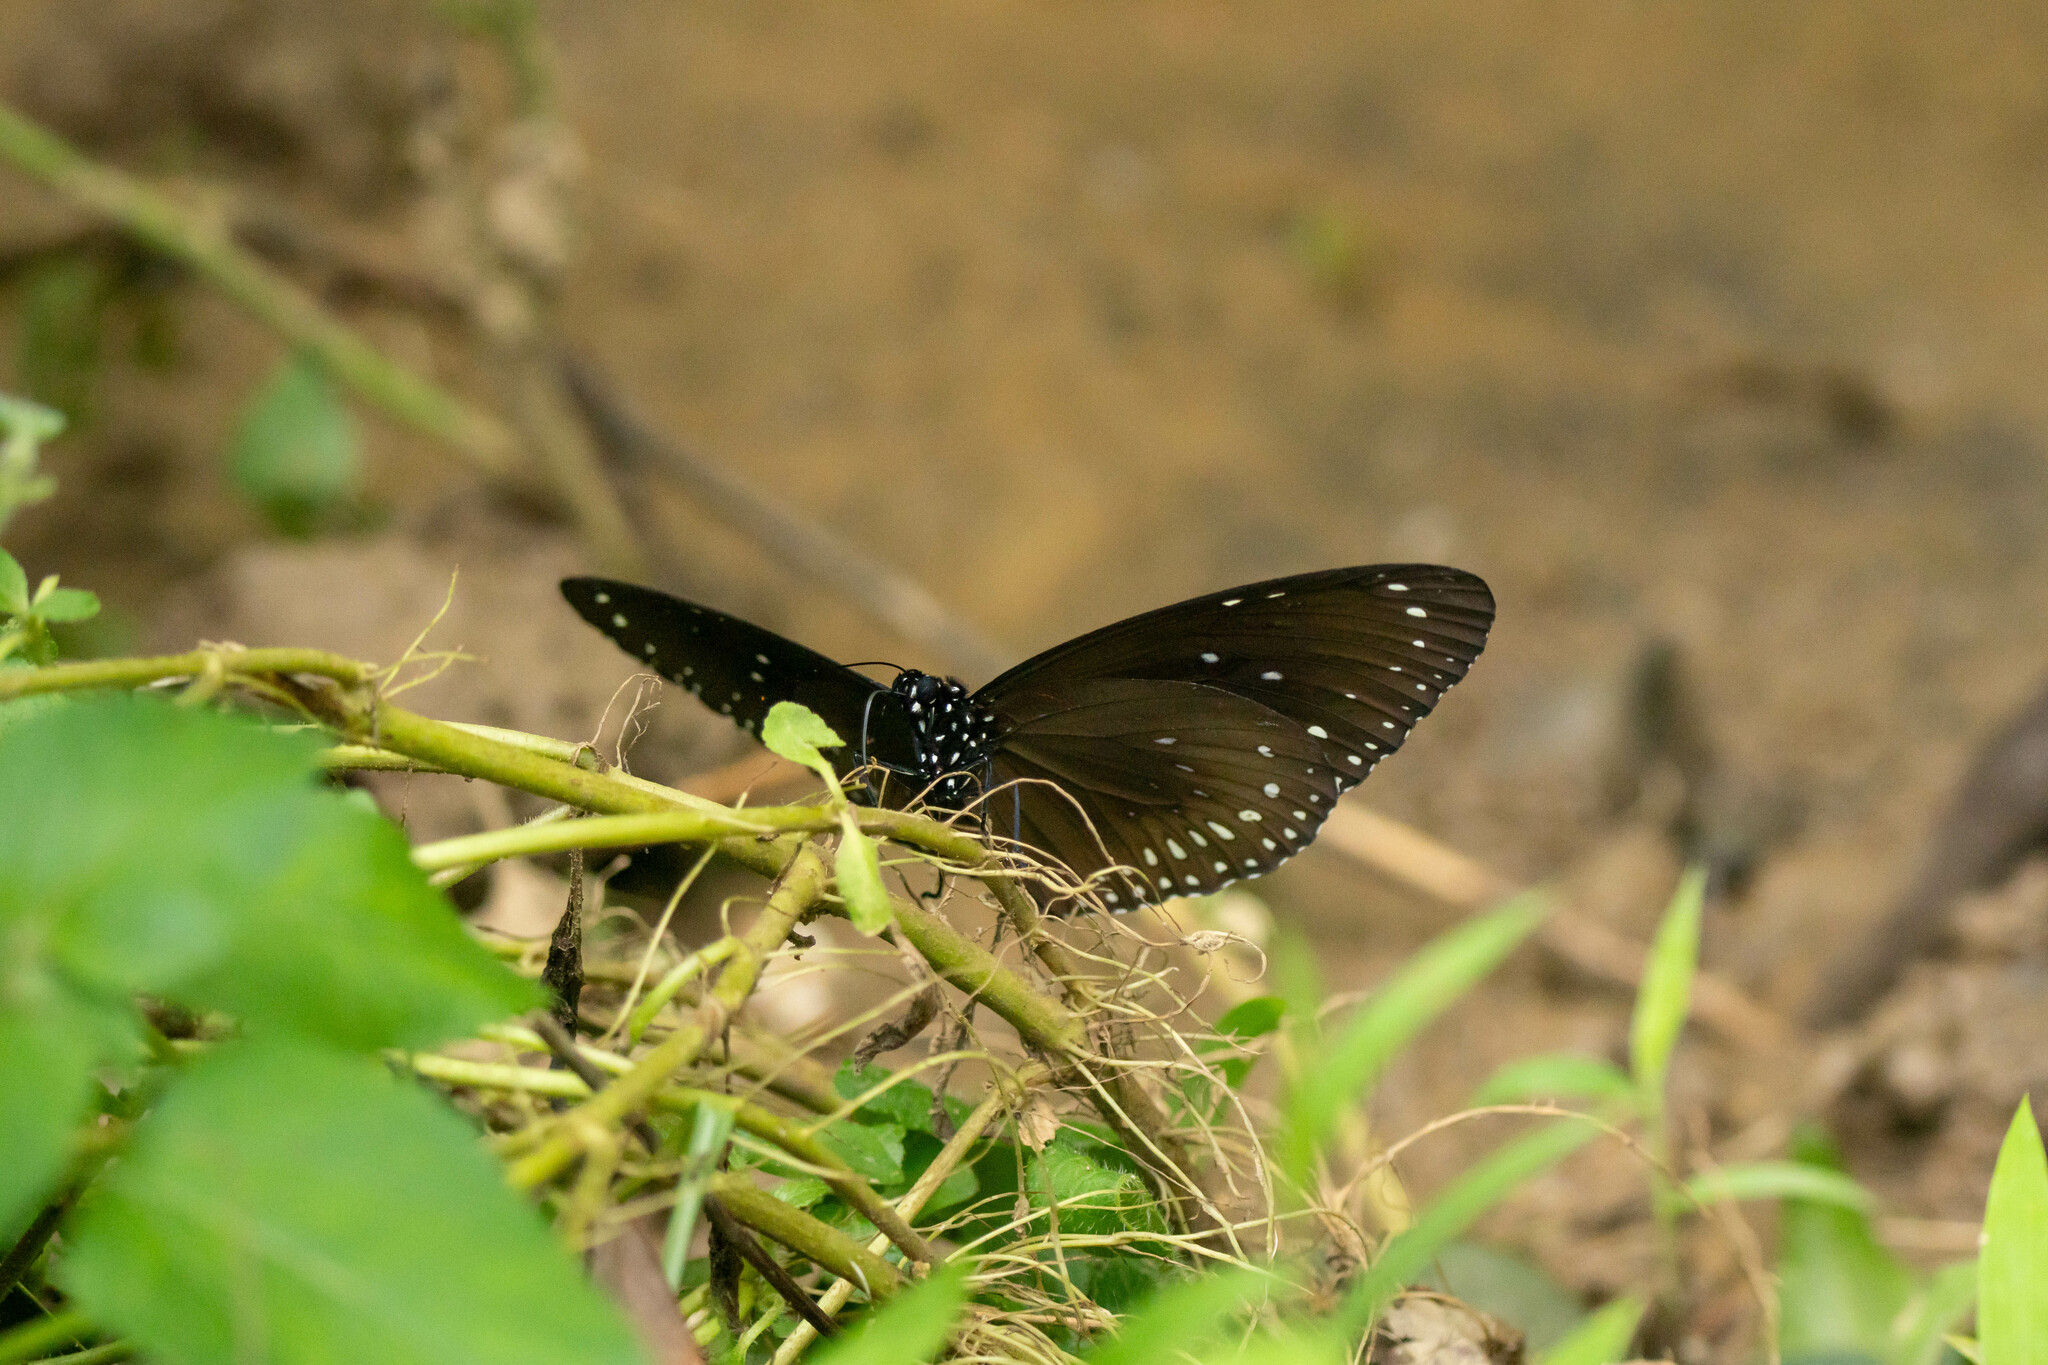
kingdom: Animalia
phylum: Arthropoda
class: Insecta
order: Lepidoptera
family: Nymphalidae
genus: Euploea
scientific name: Euploea midamus
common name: Blue-spotted crow butterfly
